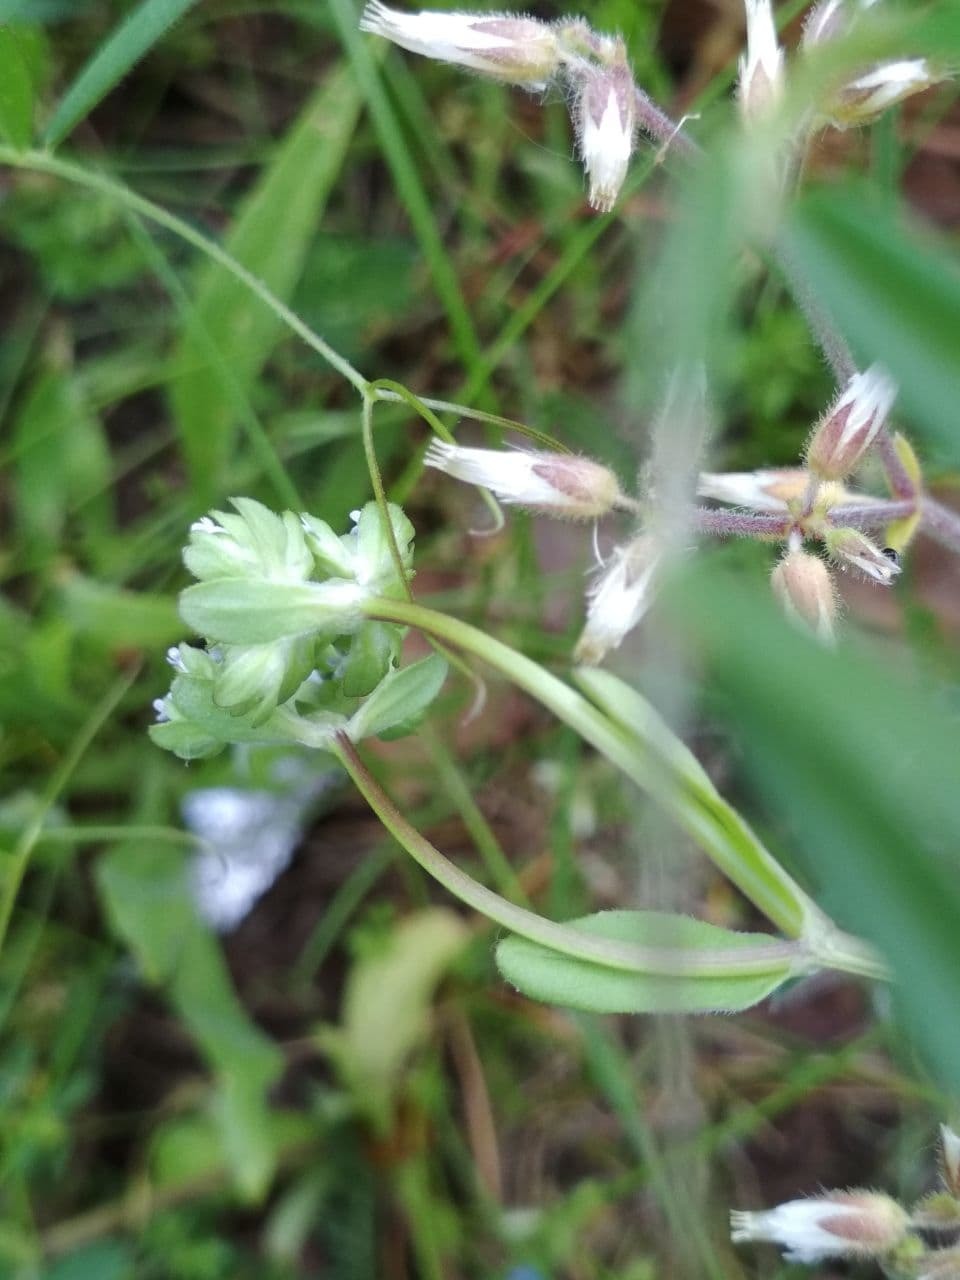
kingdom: Plantae
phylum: Tracheophyta
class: Magnoliopsida
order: Dipsacales
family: Caprifoliaceae
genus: Valerianella
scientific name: Valerianella locusta
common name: Common cornsalad
